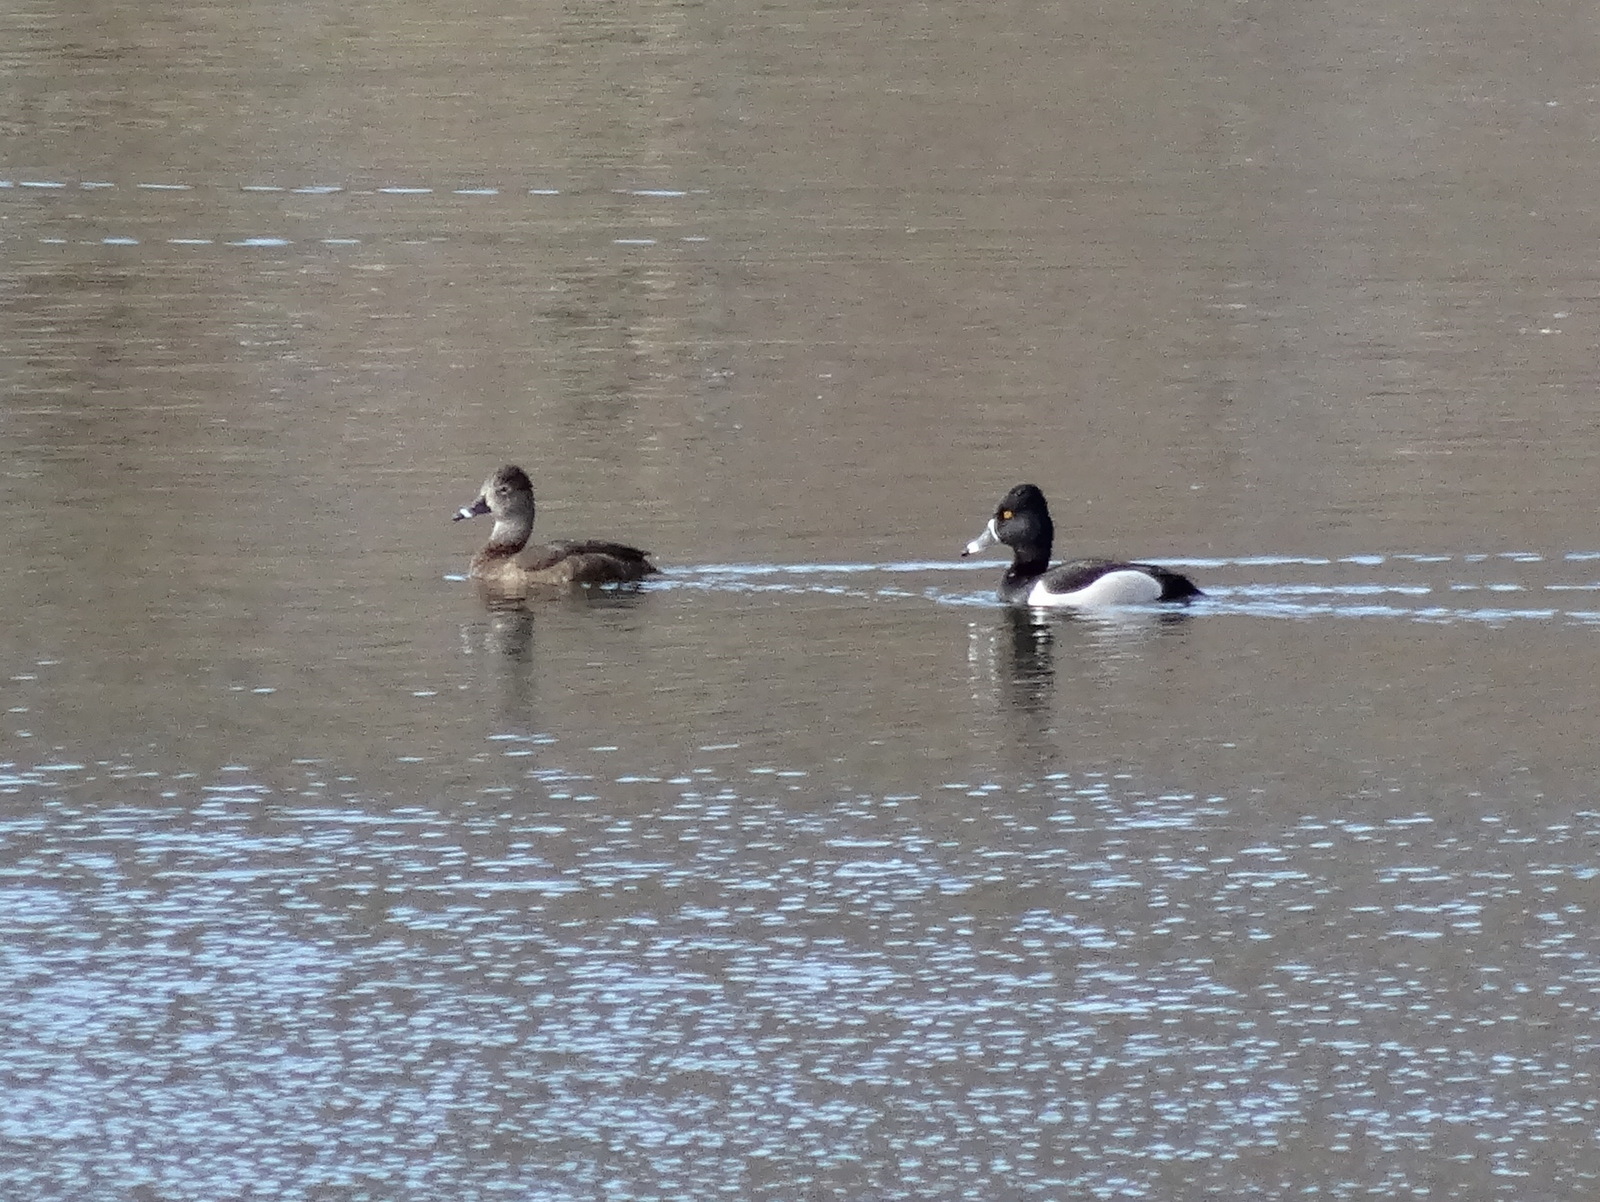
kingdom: Animalia
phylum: Chordata
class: Aves
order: Anseriformes
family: Anatidae
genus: Aythya
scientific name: Aythya collaris
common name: Ring-necked duck
